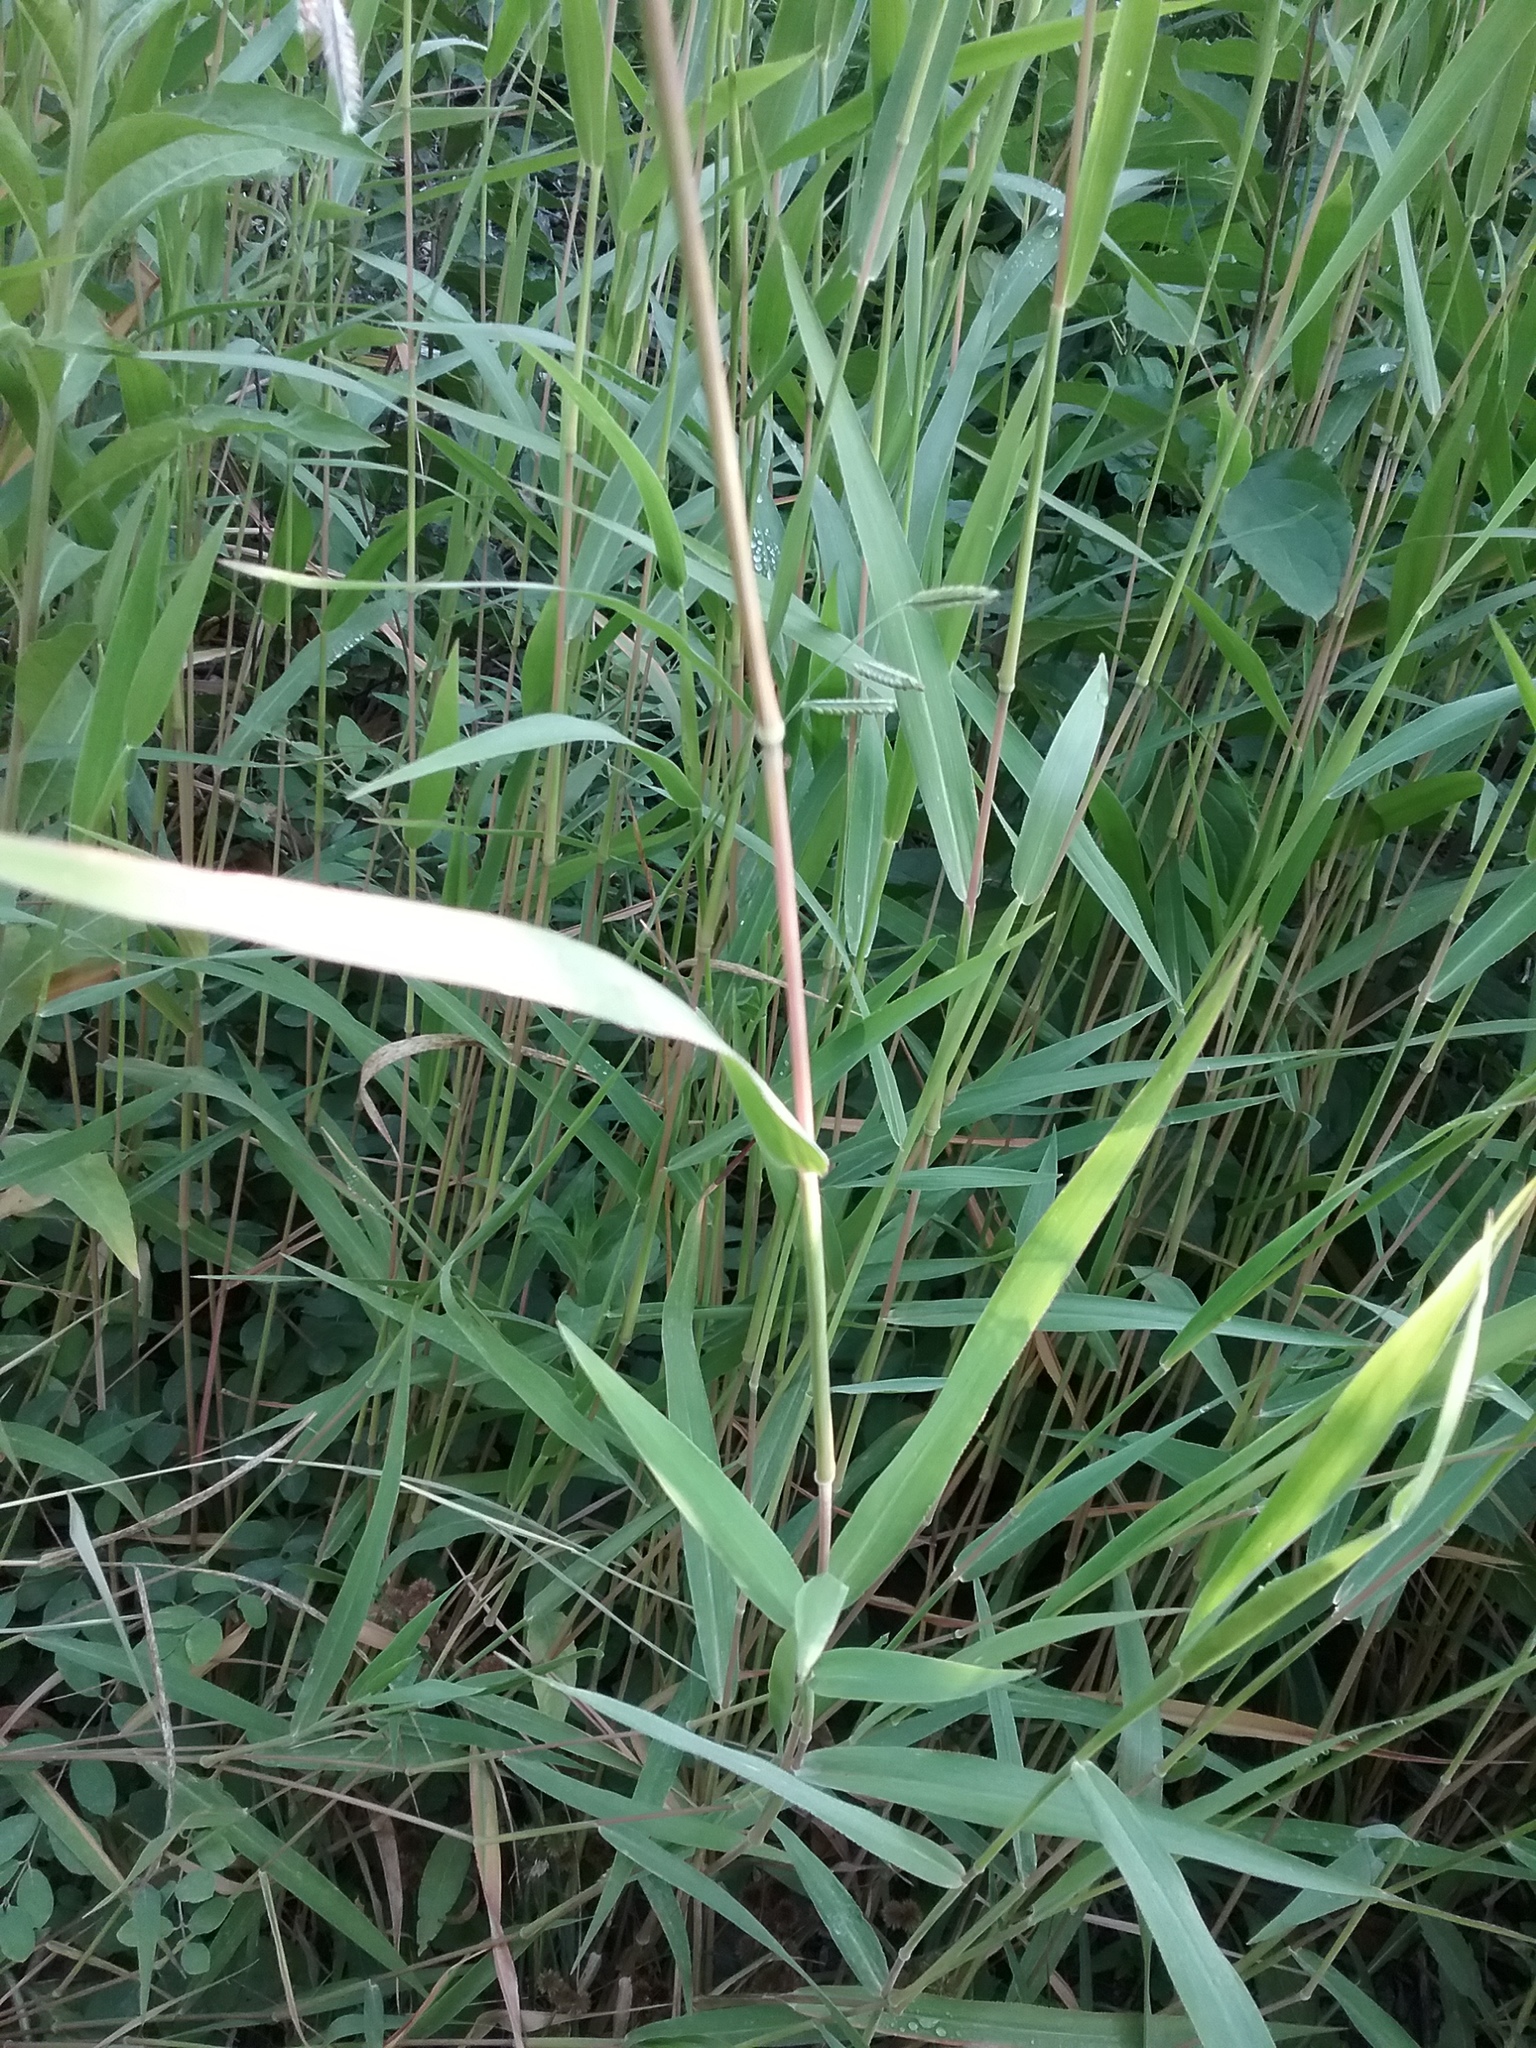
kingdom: Plantae
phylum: Tracheophyta
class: Liliopsida
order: Poales
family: Poaceae
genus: Eriochloa
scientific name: Eriochloa villosa
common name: Hairy cupgrass
